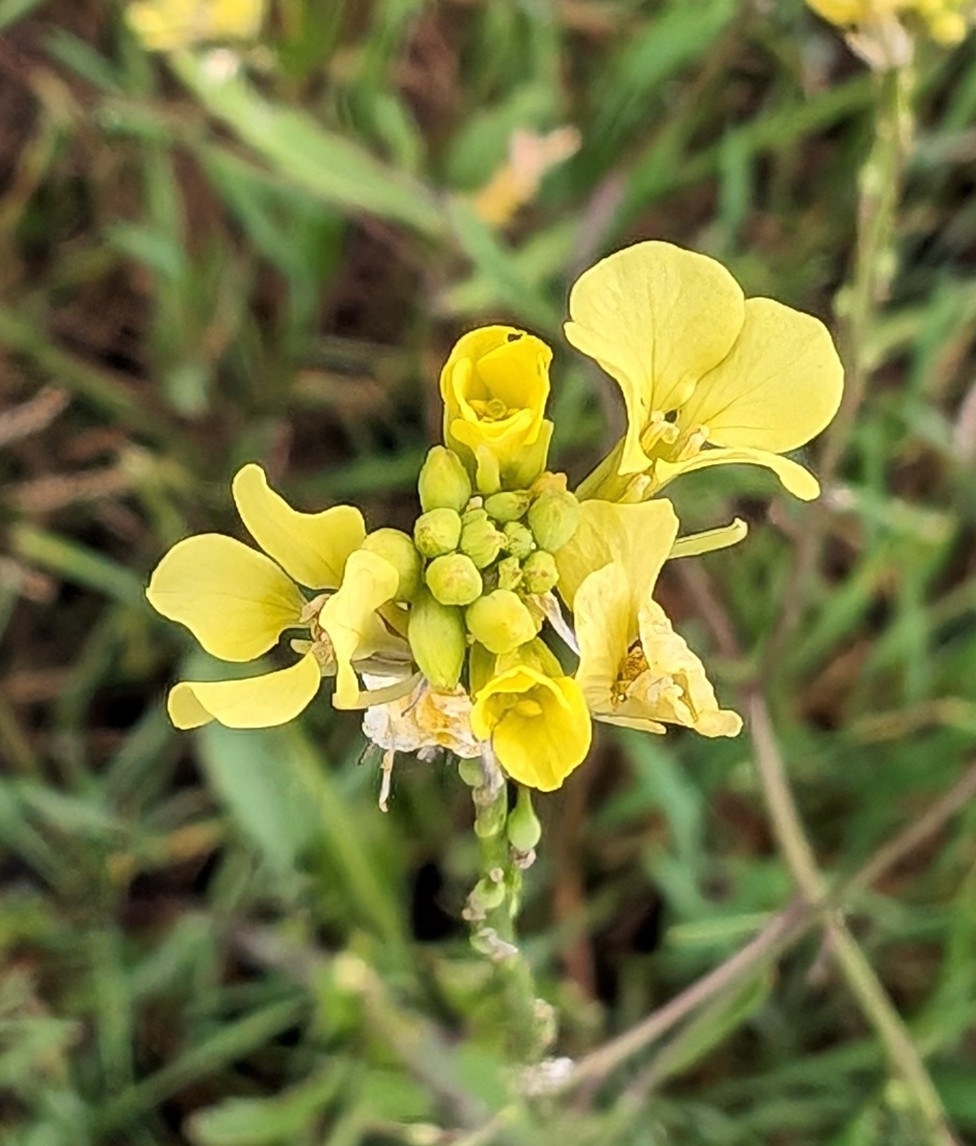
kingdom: Plantae
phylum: Tracheophyta
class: Magnoliopsida
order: Brassicales
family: Brassicaceae
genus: Rapistrum
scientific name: Rapistrum rugosum
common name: Annual bastardcabbage
